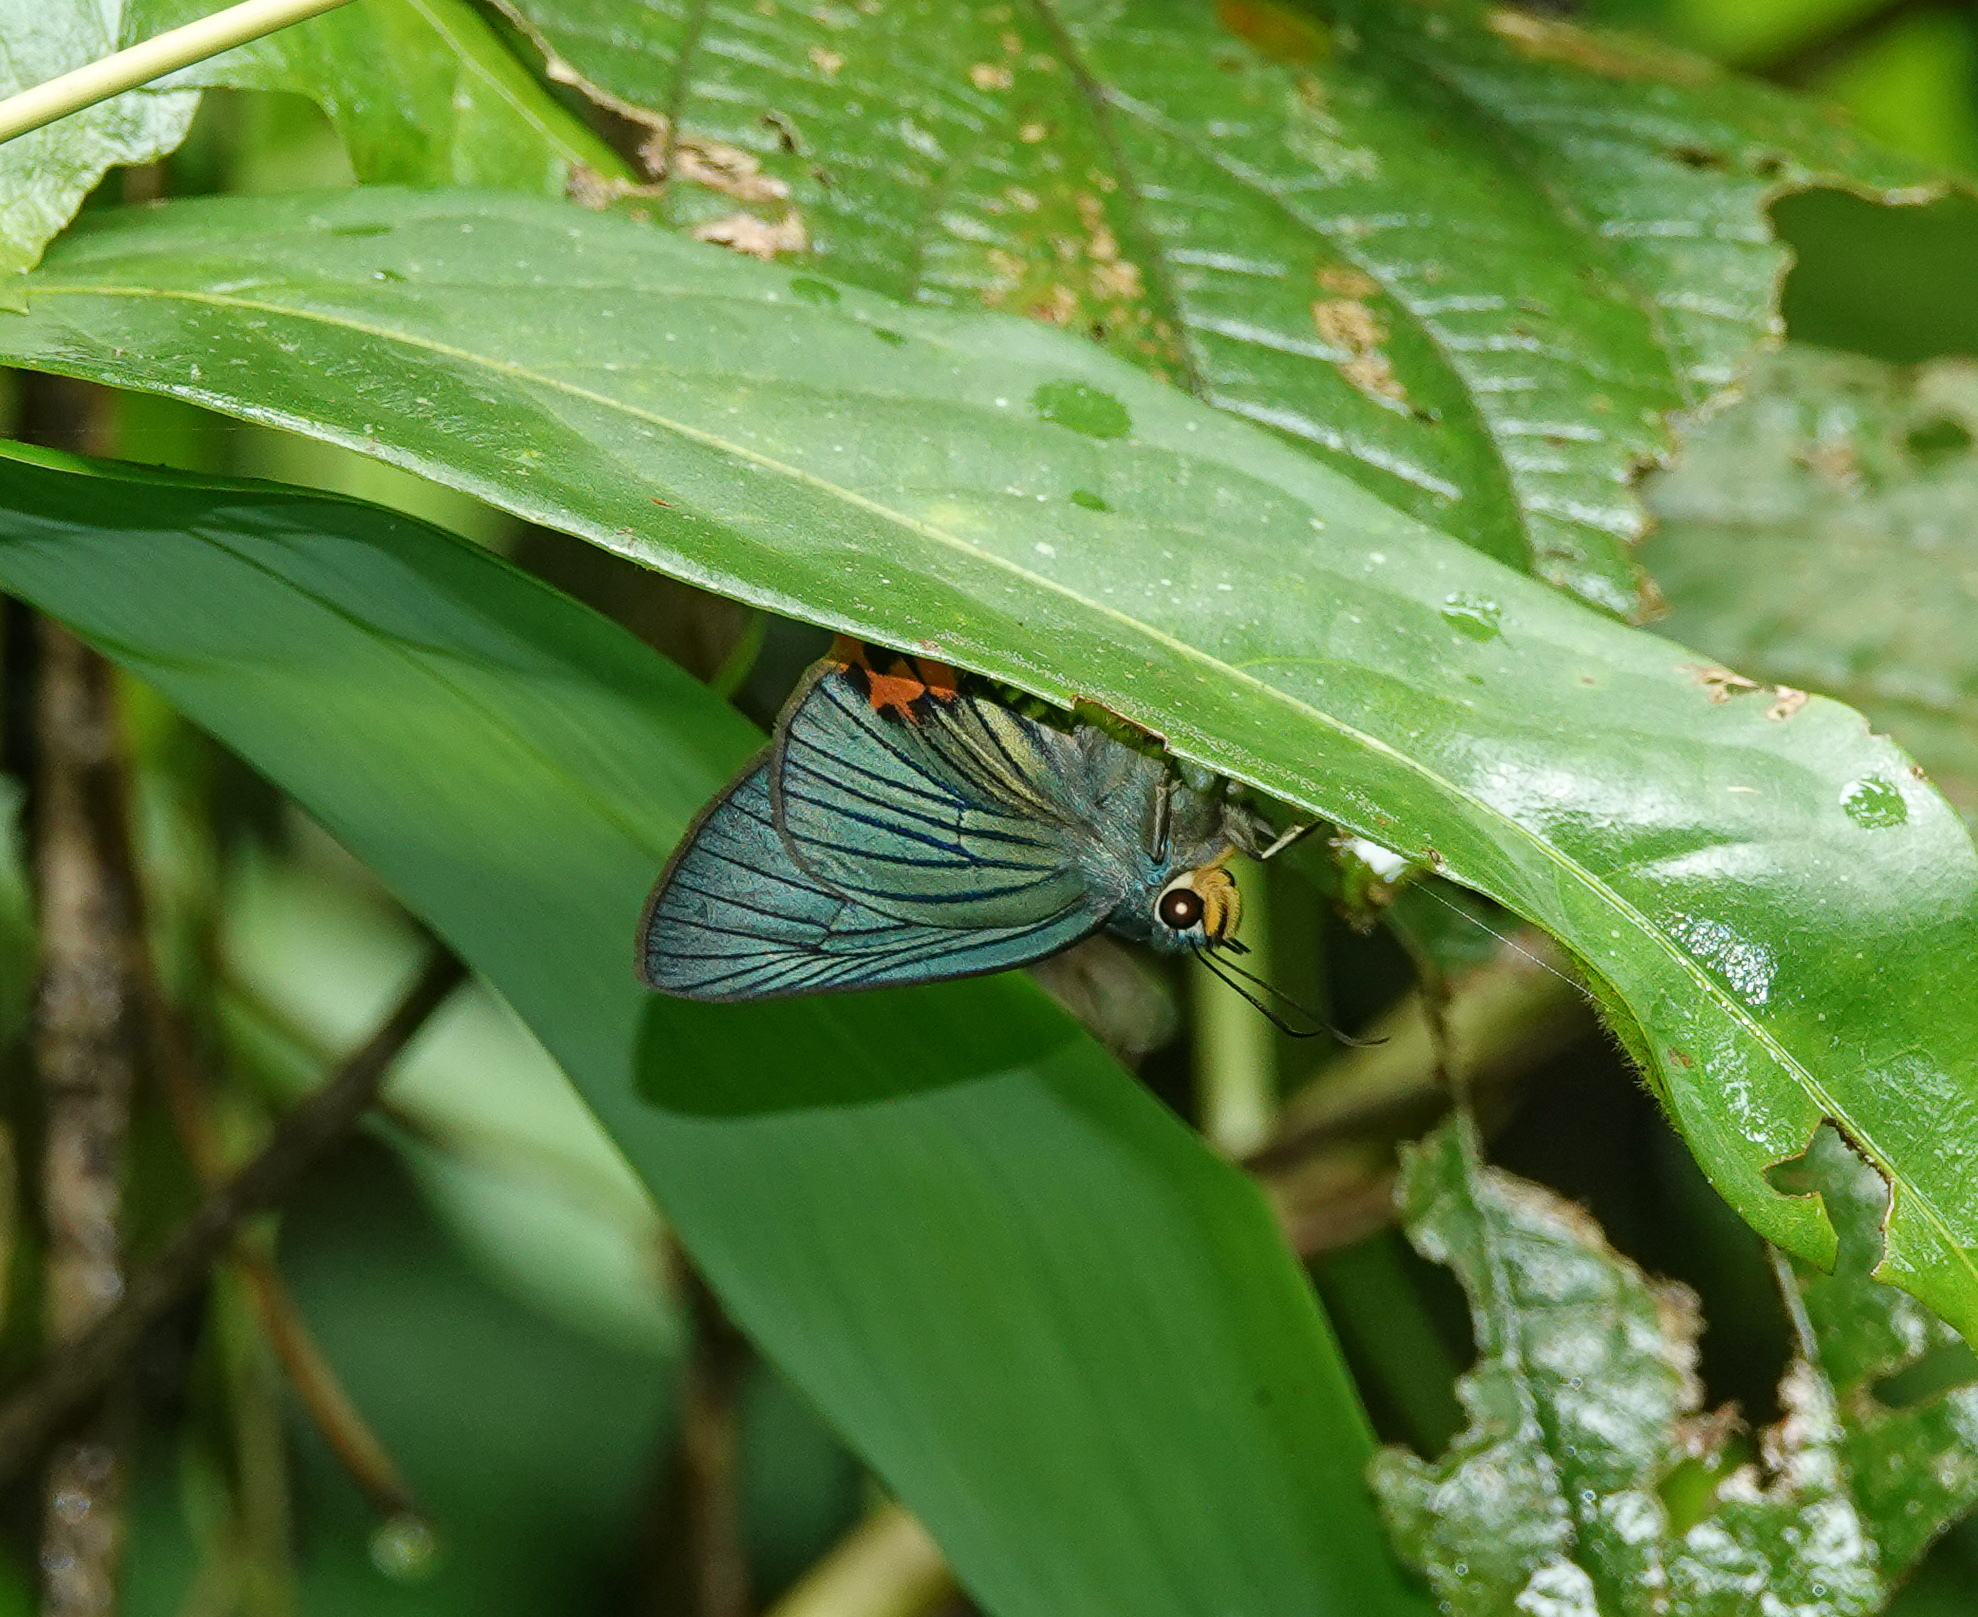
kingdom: Animalia
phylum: Arthropoda
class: Insecta
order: Lepidoptera
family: Hesperiidae
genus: Choaspes
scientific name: Choaspes benjaminii
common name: Indian awlking
